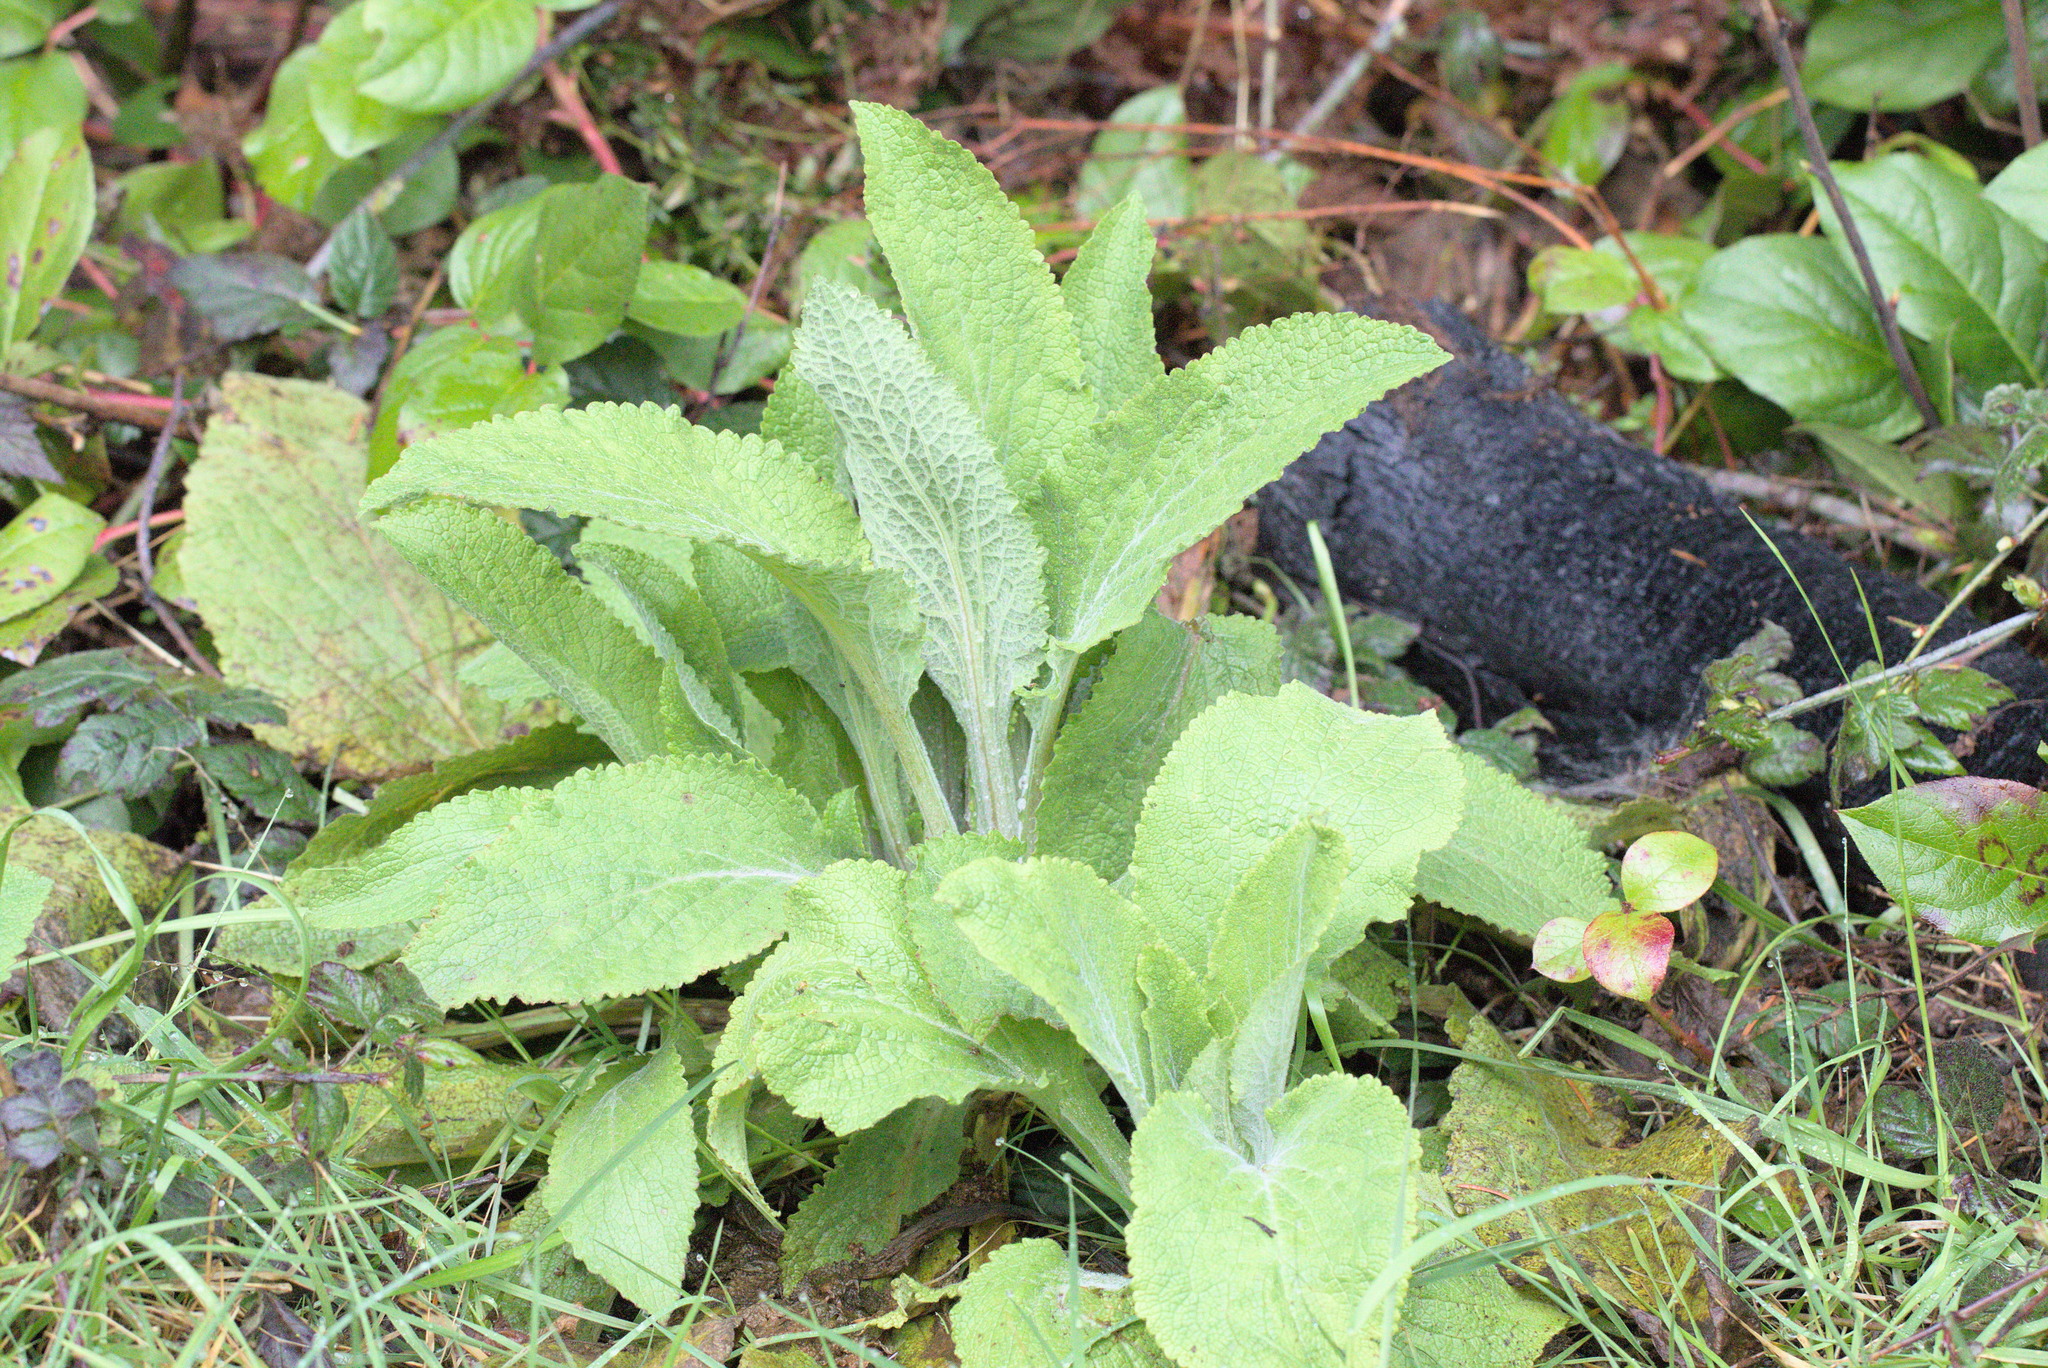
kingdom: Plantae
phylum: Tracheophyta
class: Magnoliopsida
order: Lamiales
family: Plantaginaceae
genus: Digitalis
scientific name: Digitalis purpurea
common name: Foxglove
